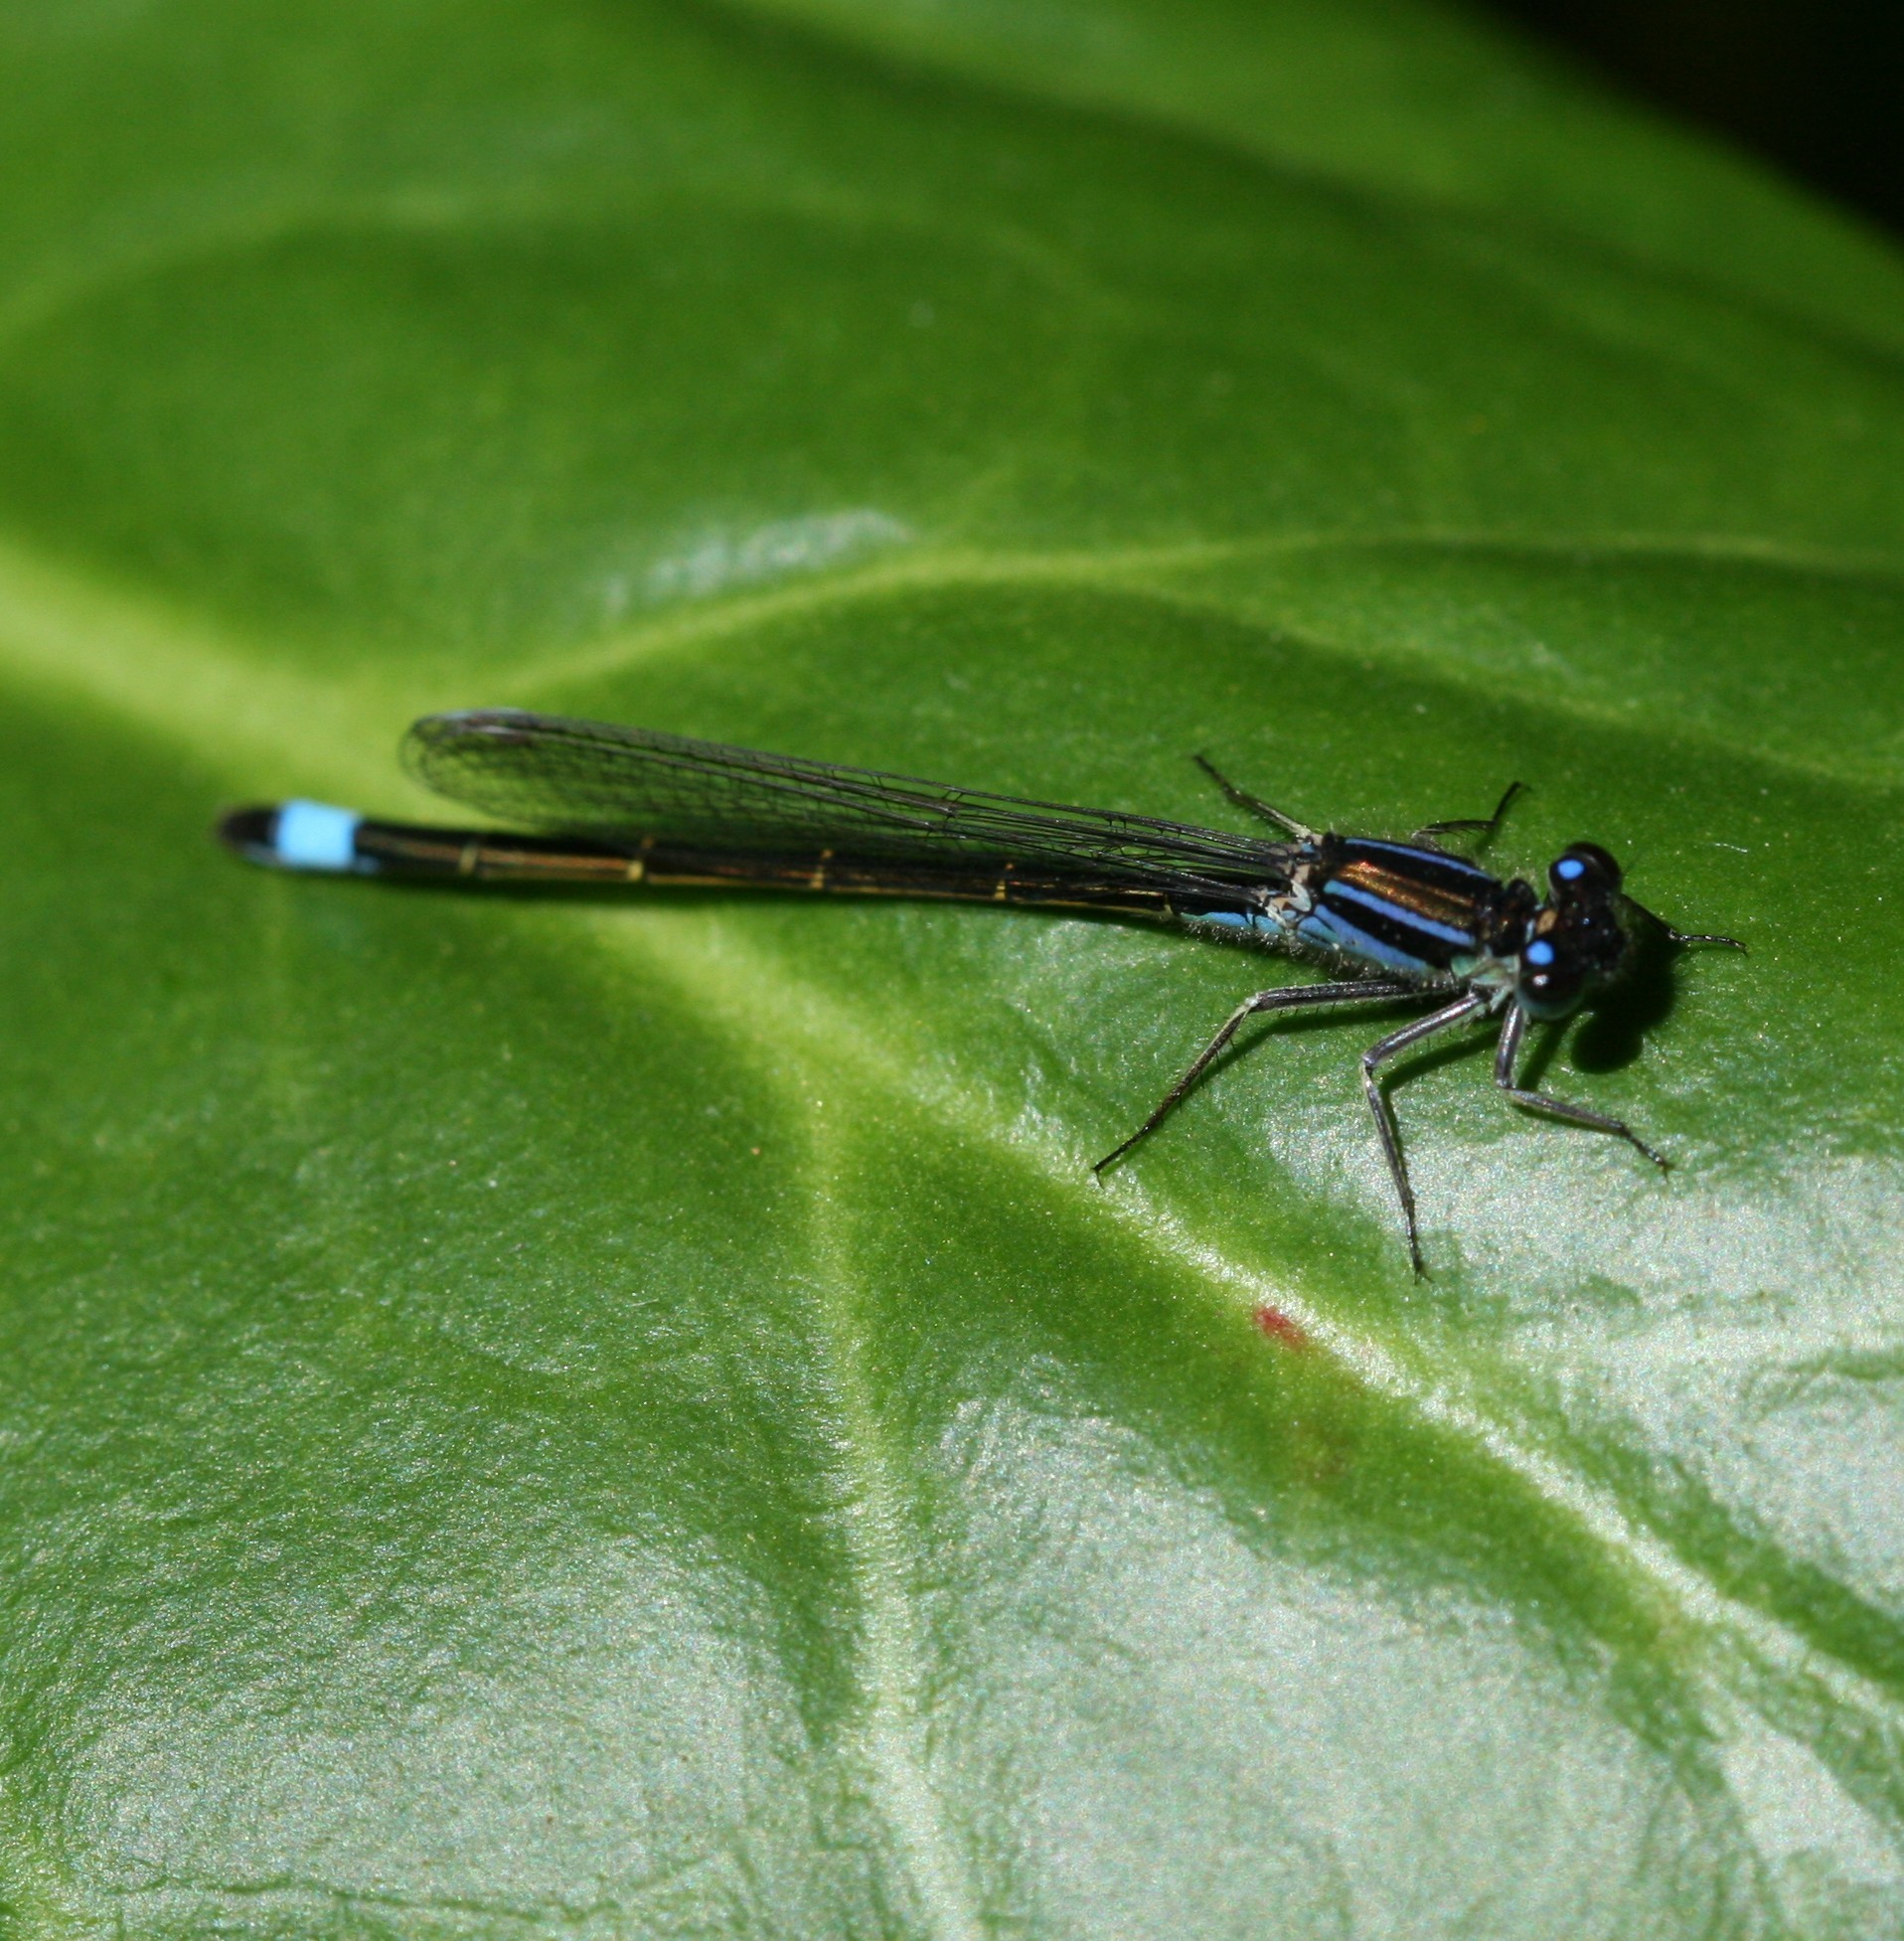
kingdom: Animalia
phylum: Arthropoda
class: Insecta
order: Odonata
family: Coenagrionidae
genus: Ischnura
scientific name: Ischnura elegans
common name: Blue-tailed damselfly
